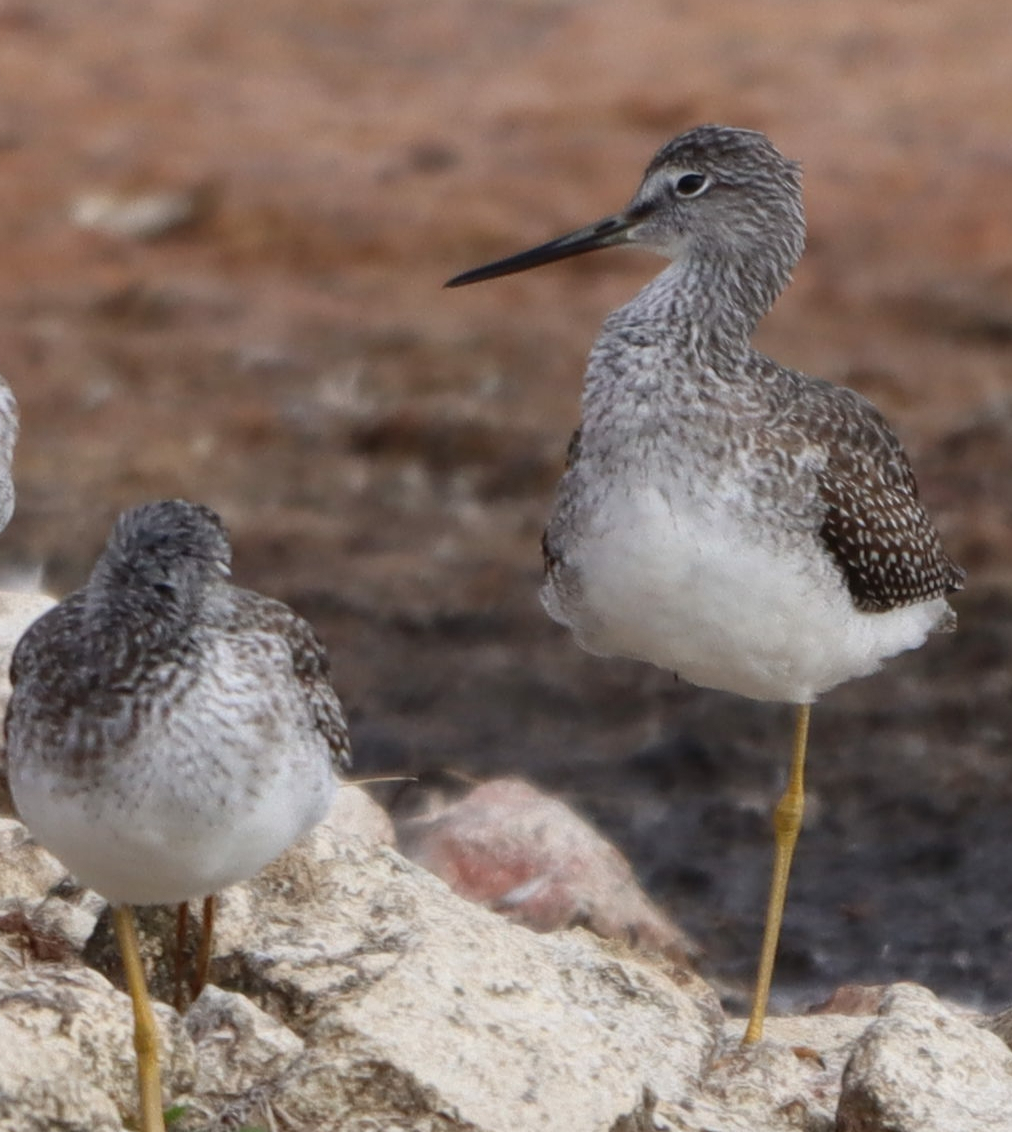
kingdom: Animalia
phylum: Chordata
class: Aves
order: Charadriiformes
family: Scolopacidae
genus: Tringa
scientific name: Tringa melanoleuca
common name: Greater yellowlegs
